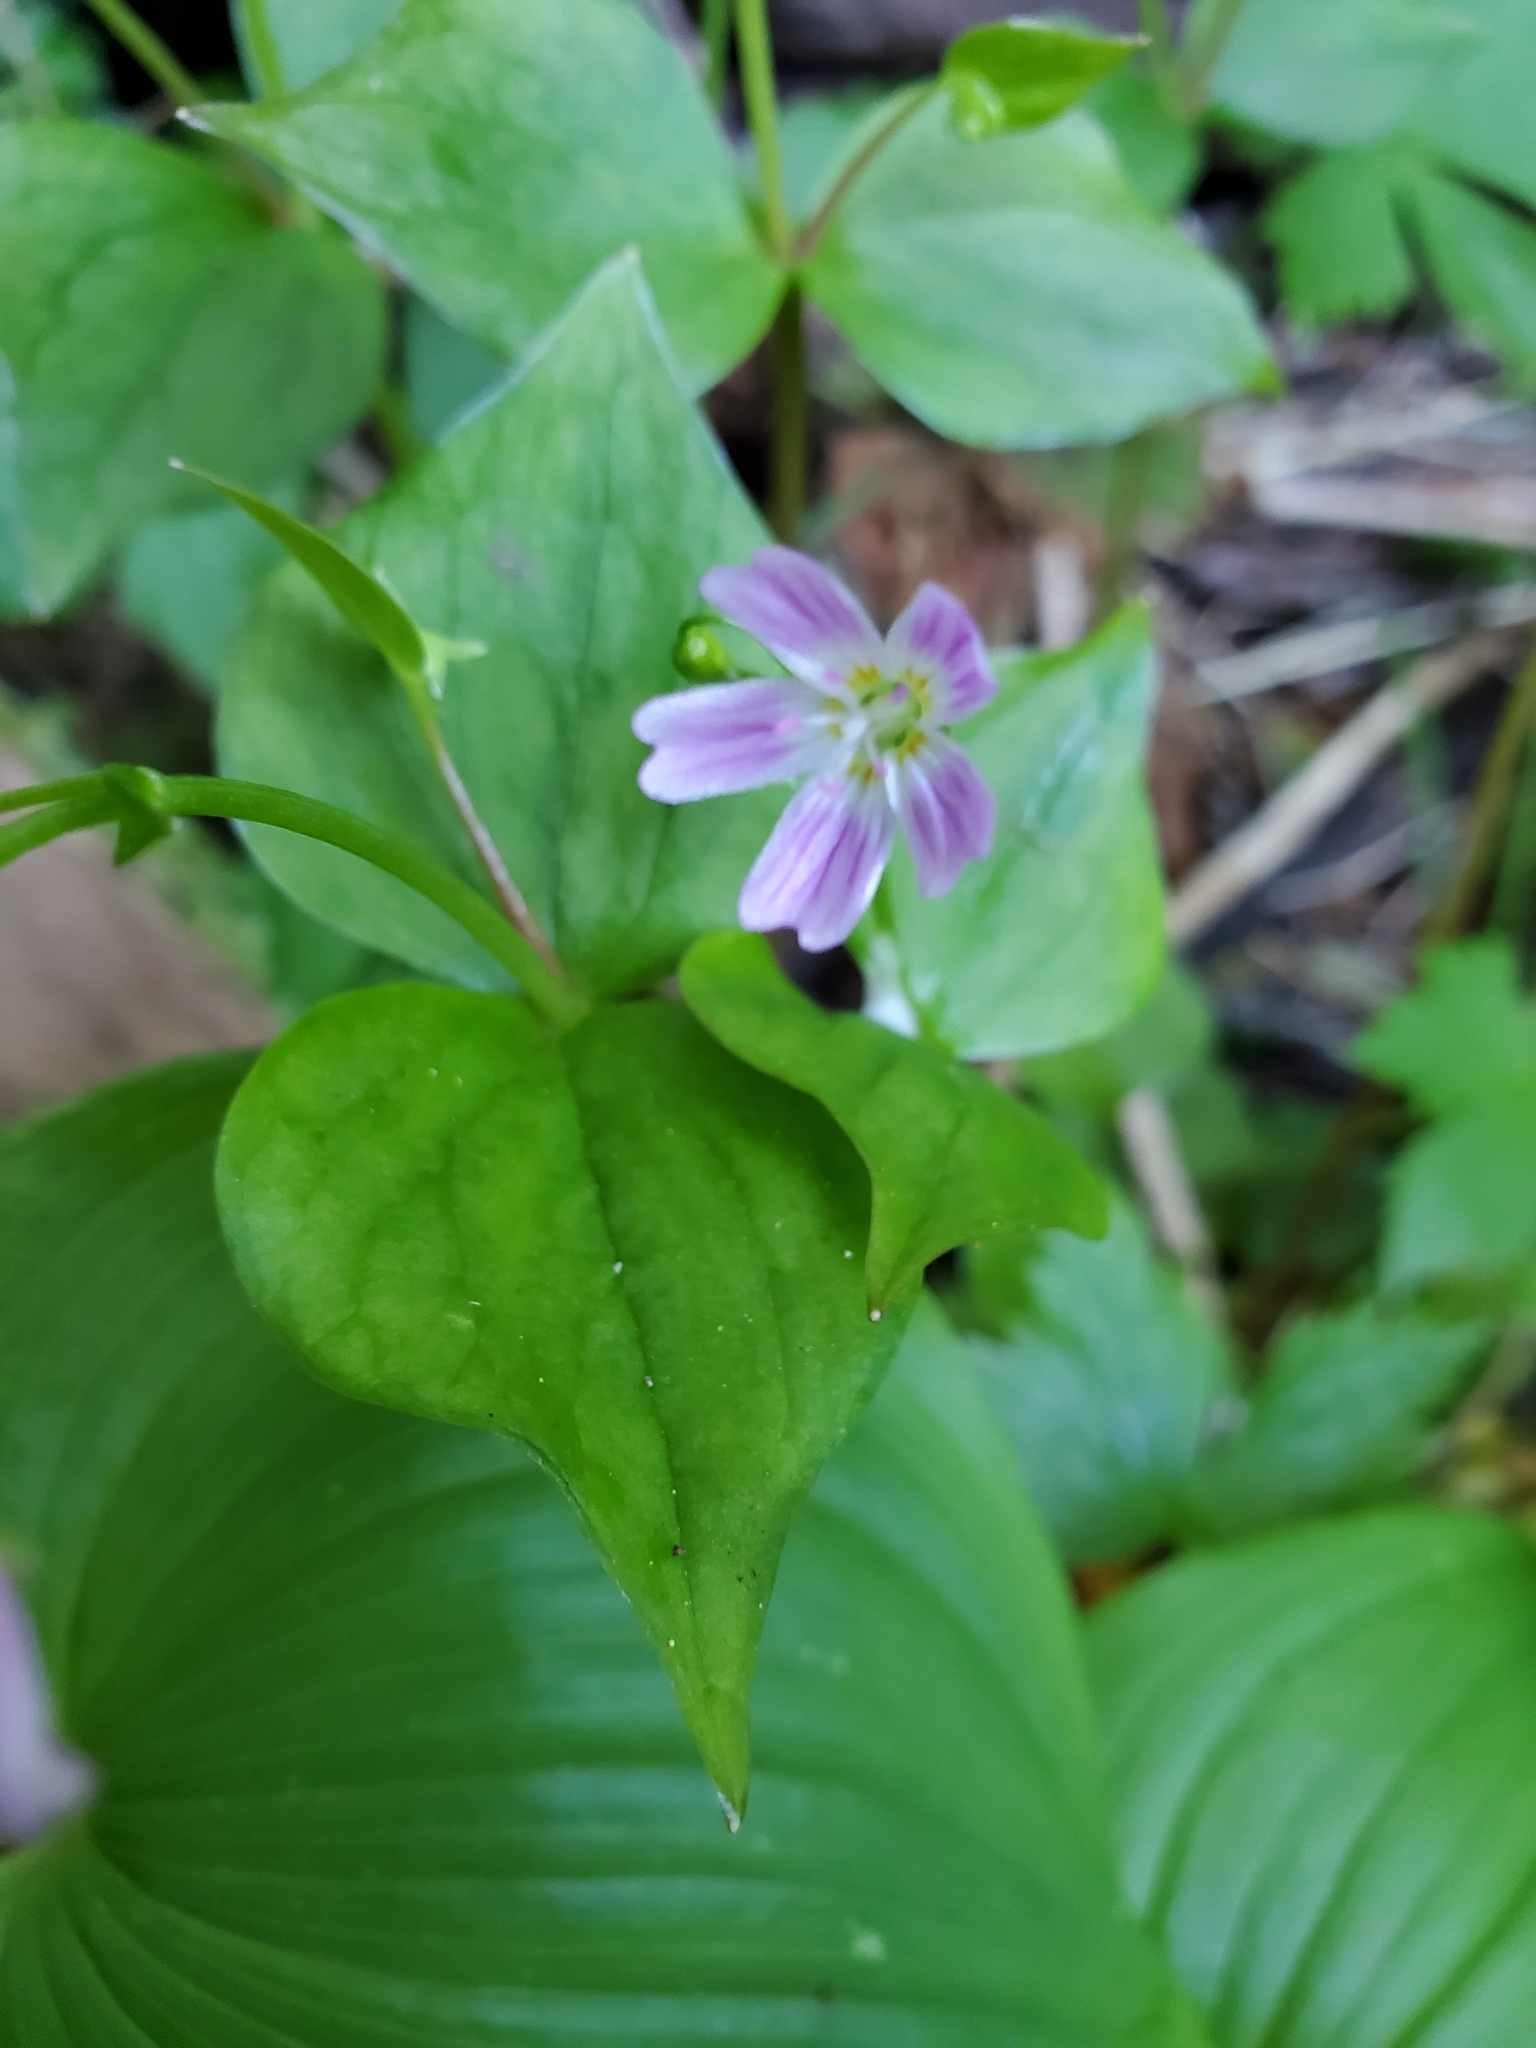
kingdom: Plantae
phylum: Tracheophyta
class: Magnoliopsida
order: Caryophyllales
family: Montiaceae
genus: Claytonia
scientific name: Claytonia sibirica
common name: Pink purslane
